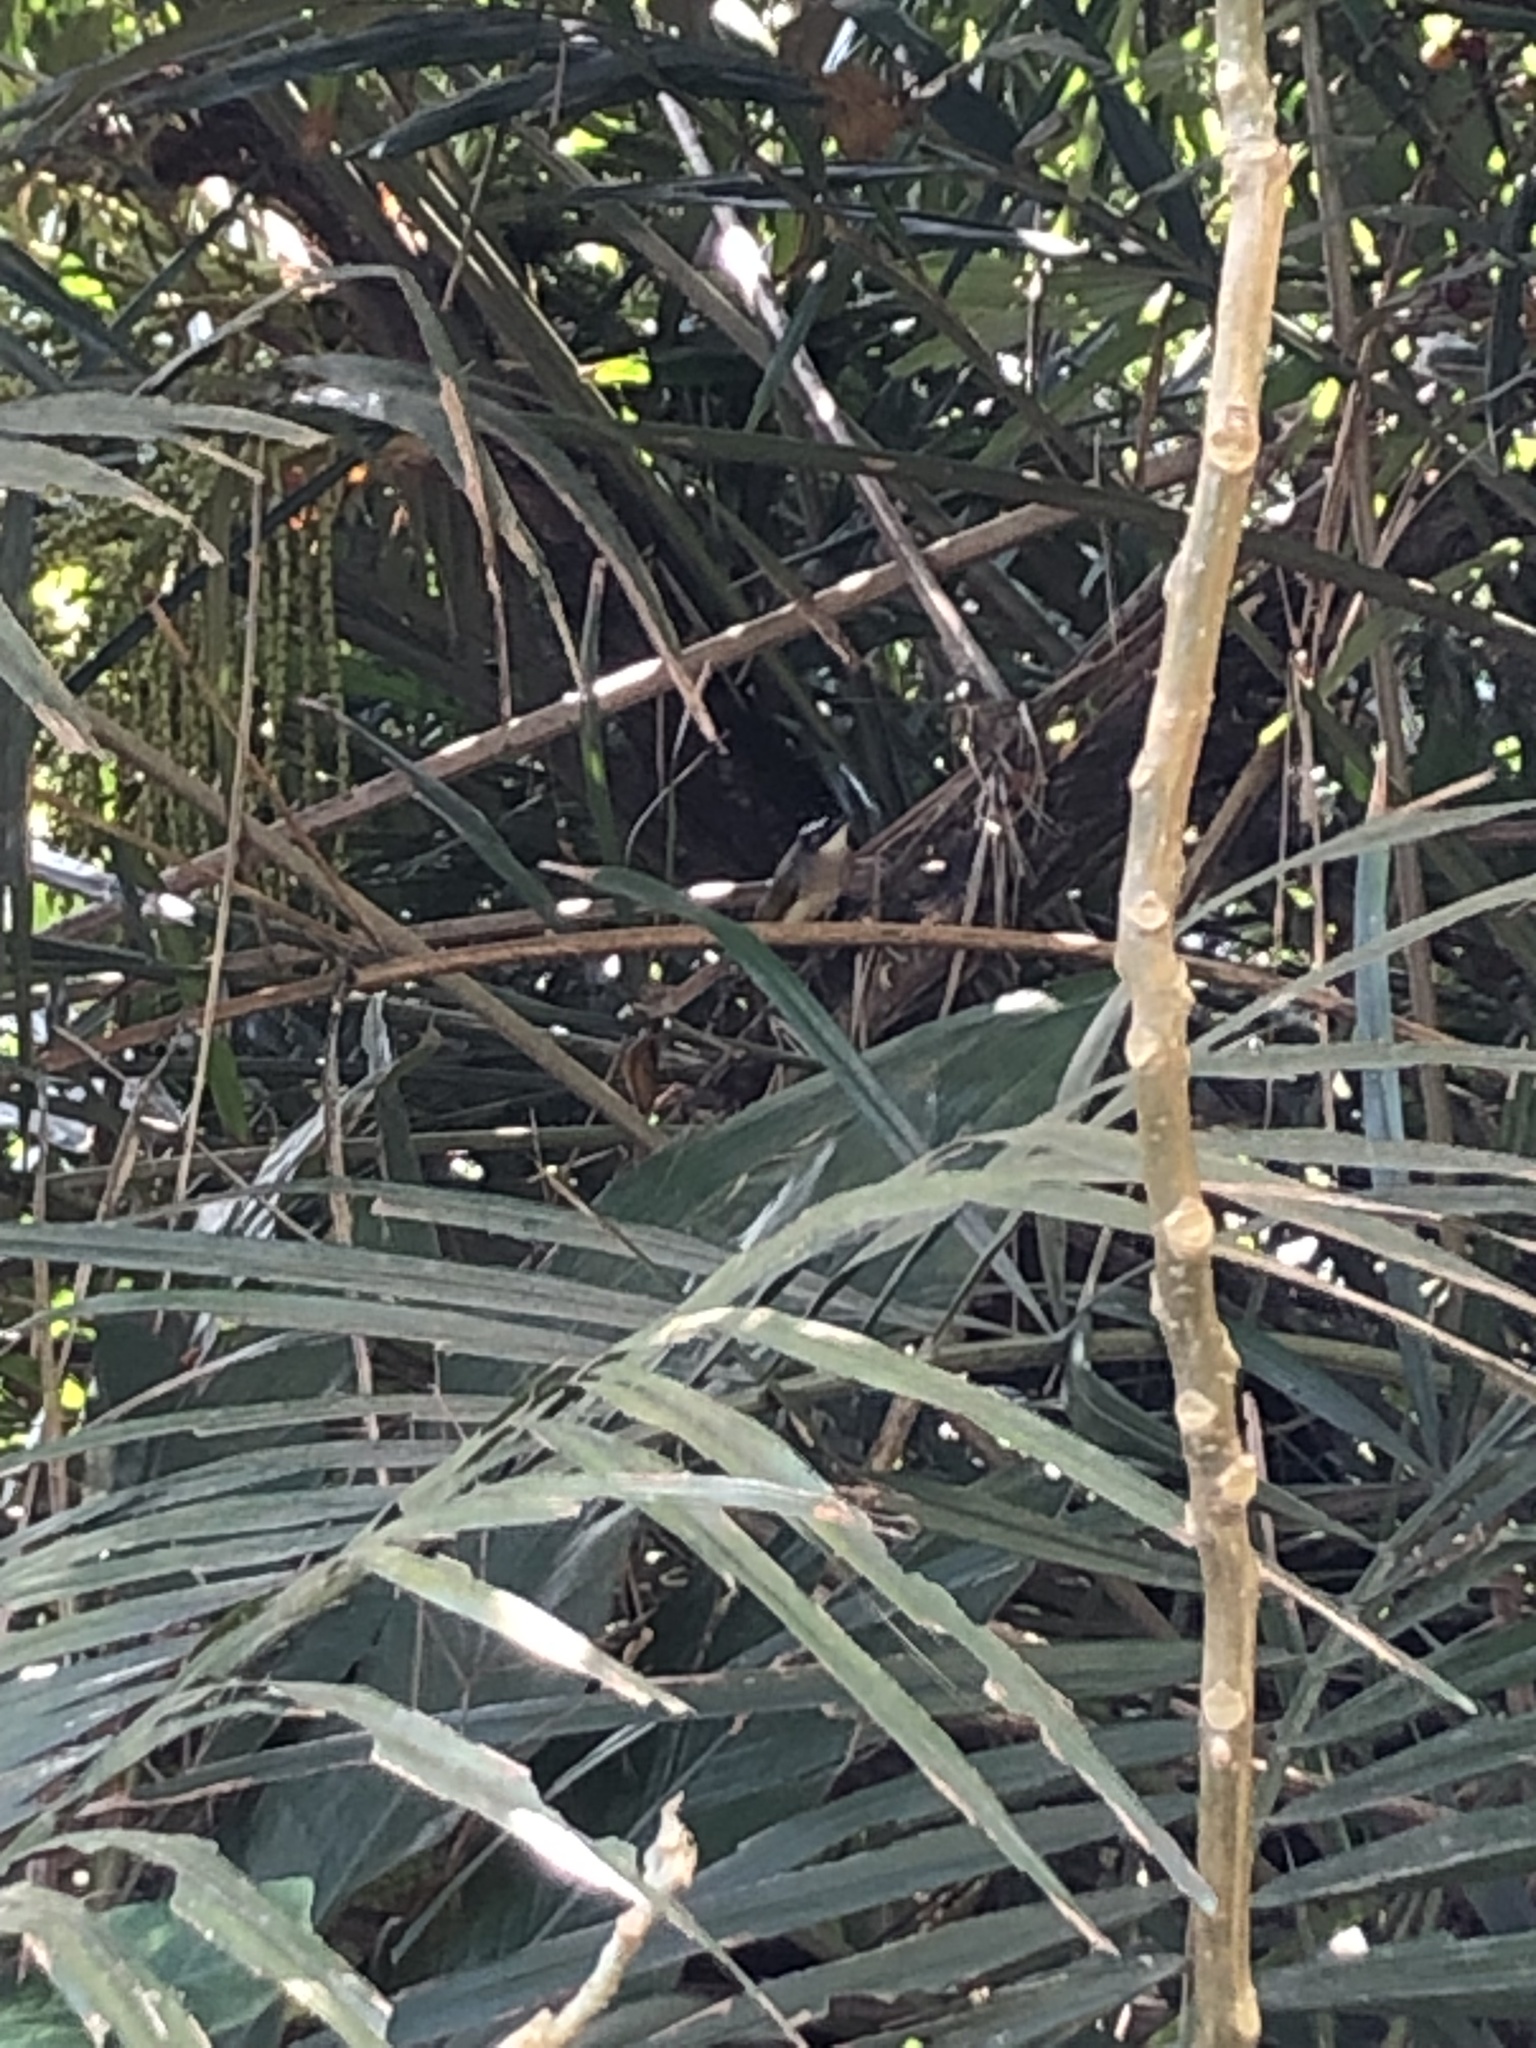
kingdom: Animalia
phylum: Chordata
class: Aves
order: Passeriformes
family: Pycnonotidae
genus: Pycnonotus
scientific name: Pycnonotus sinensis
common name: Light-vented bulbul
